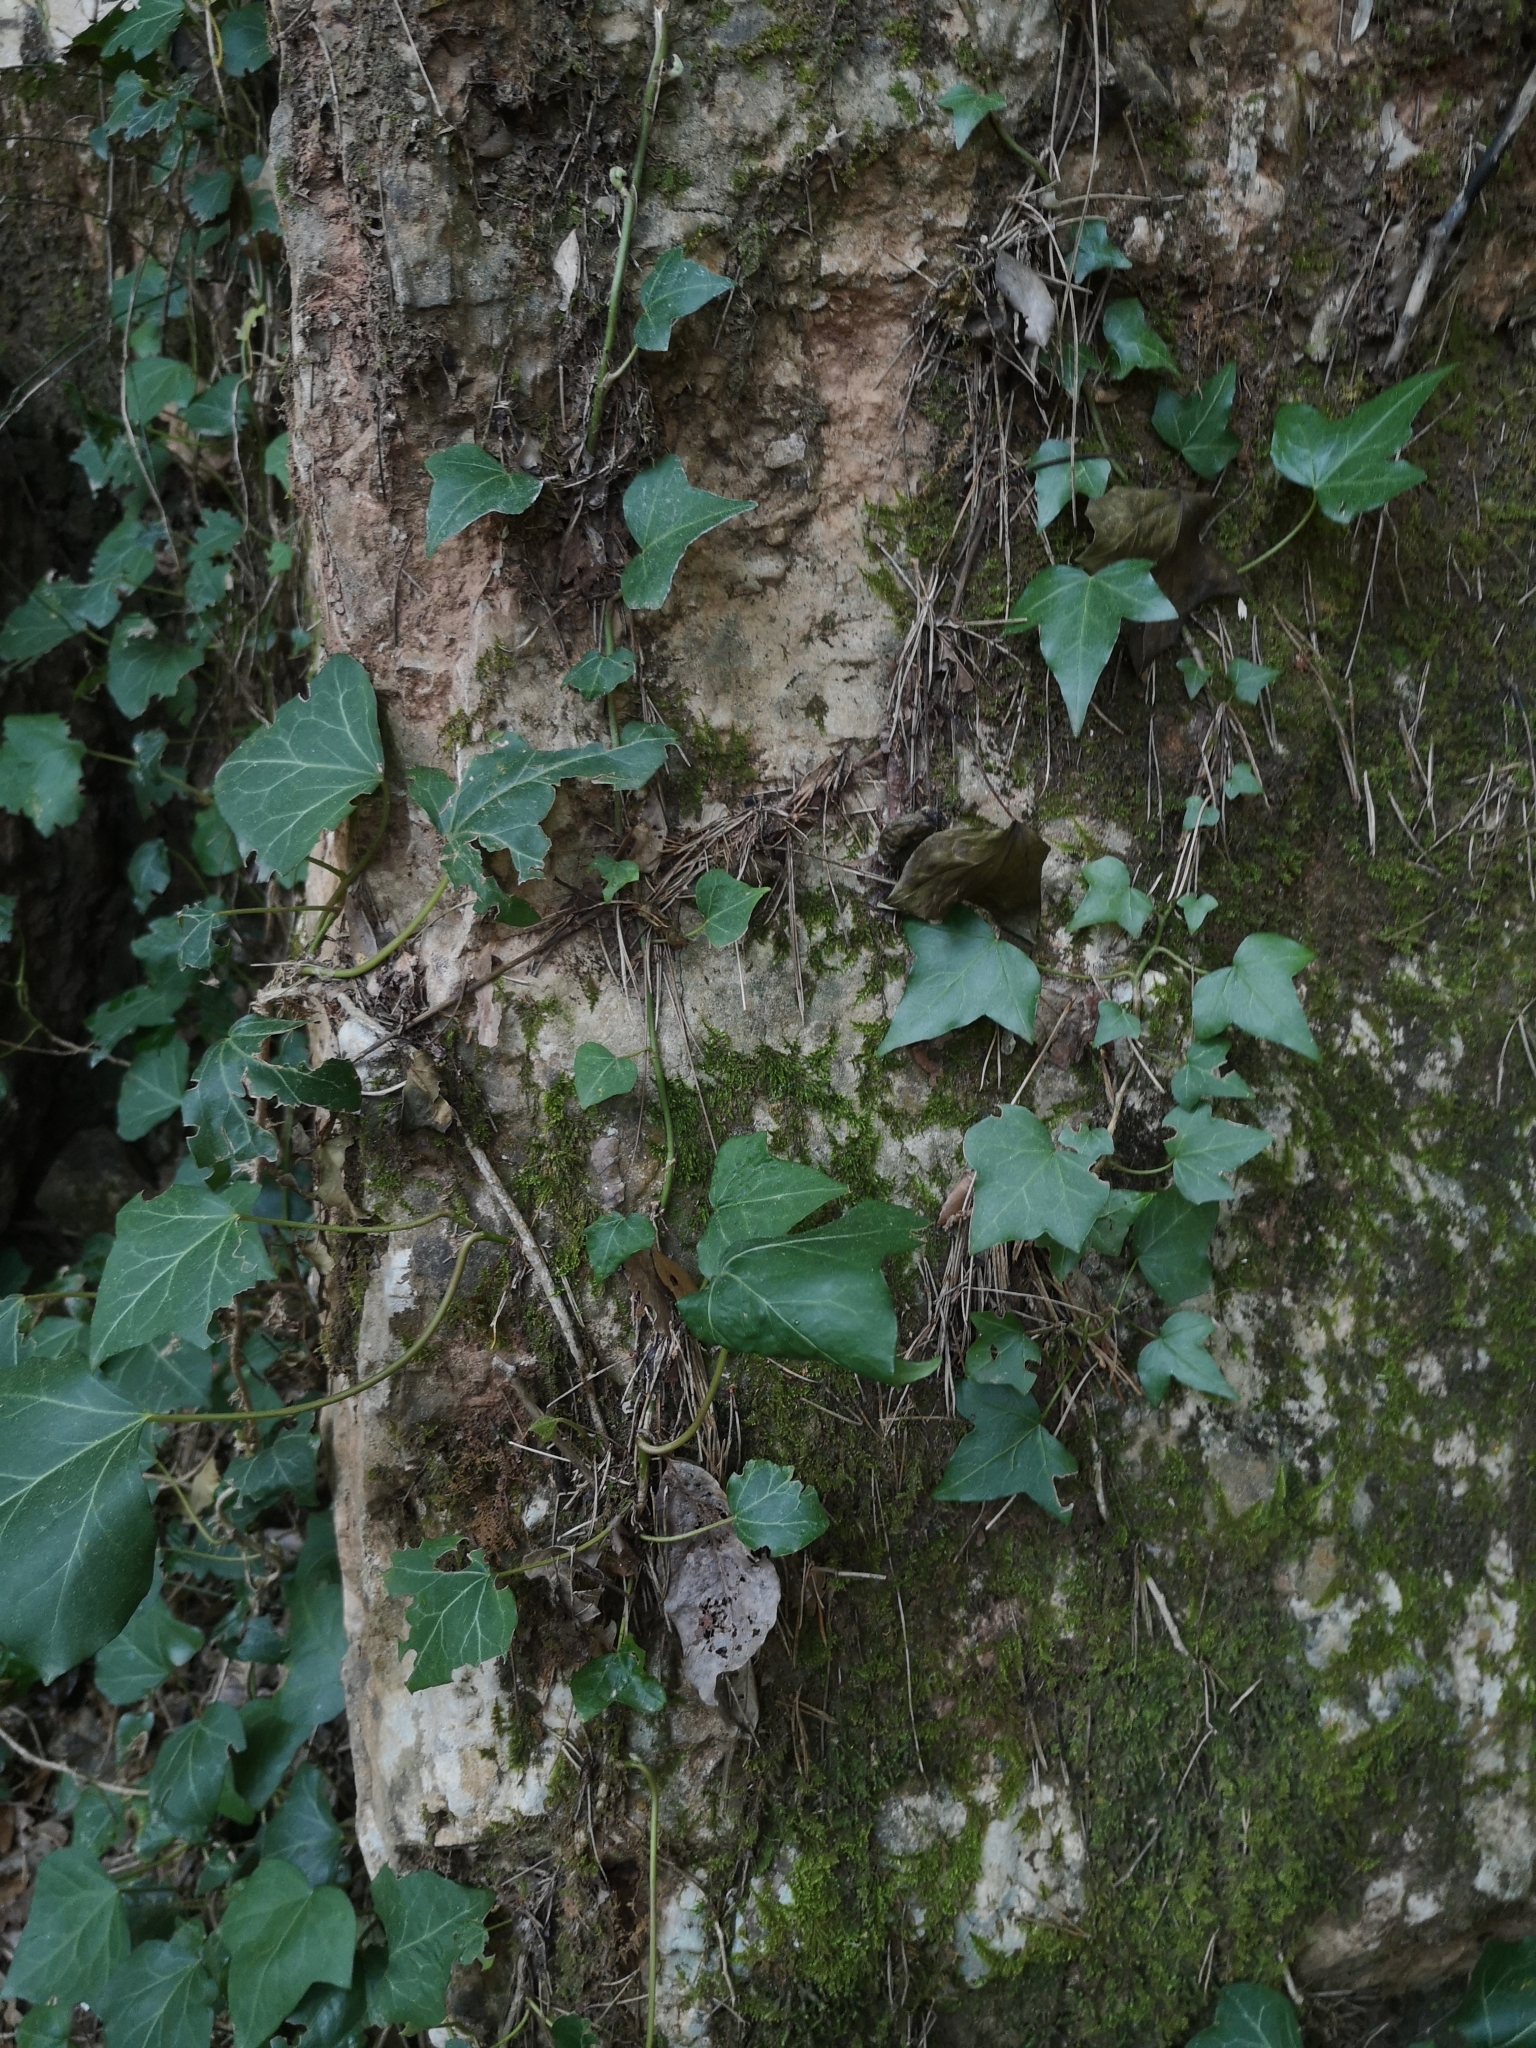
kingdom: Plantae
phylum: Tracheophyta
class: Magnoliopsida
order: Apiales
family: Araliaceae
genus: Hedera
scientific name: Hedera helix
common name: Ivy
